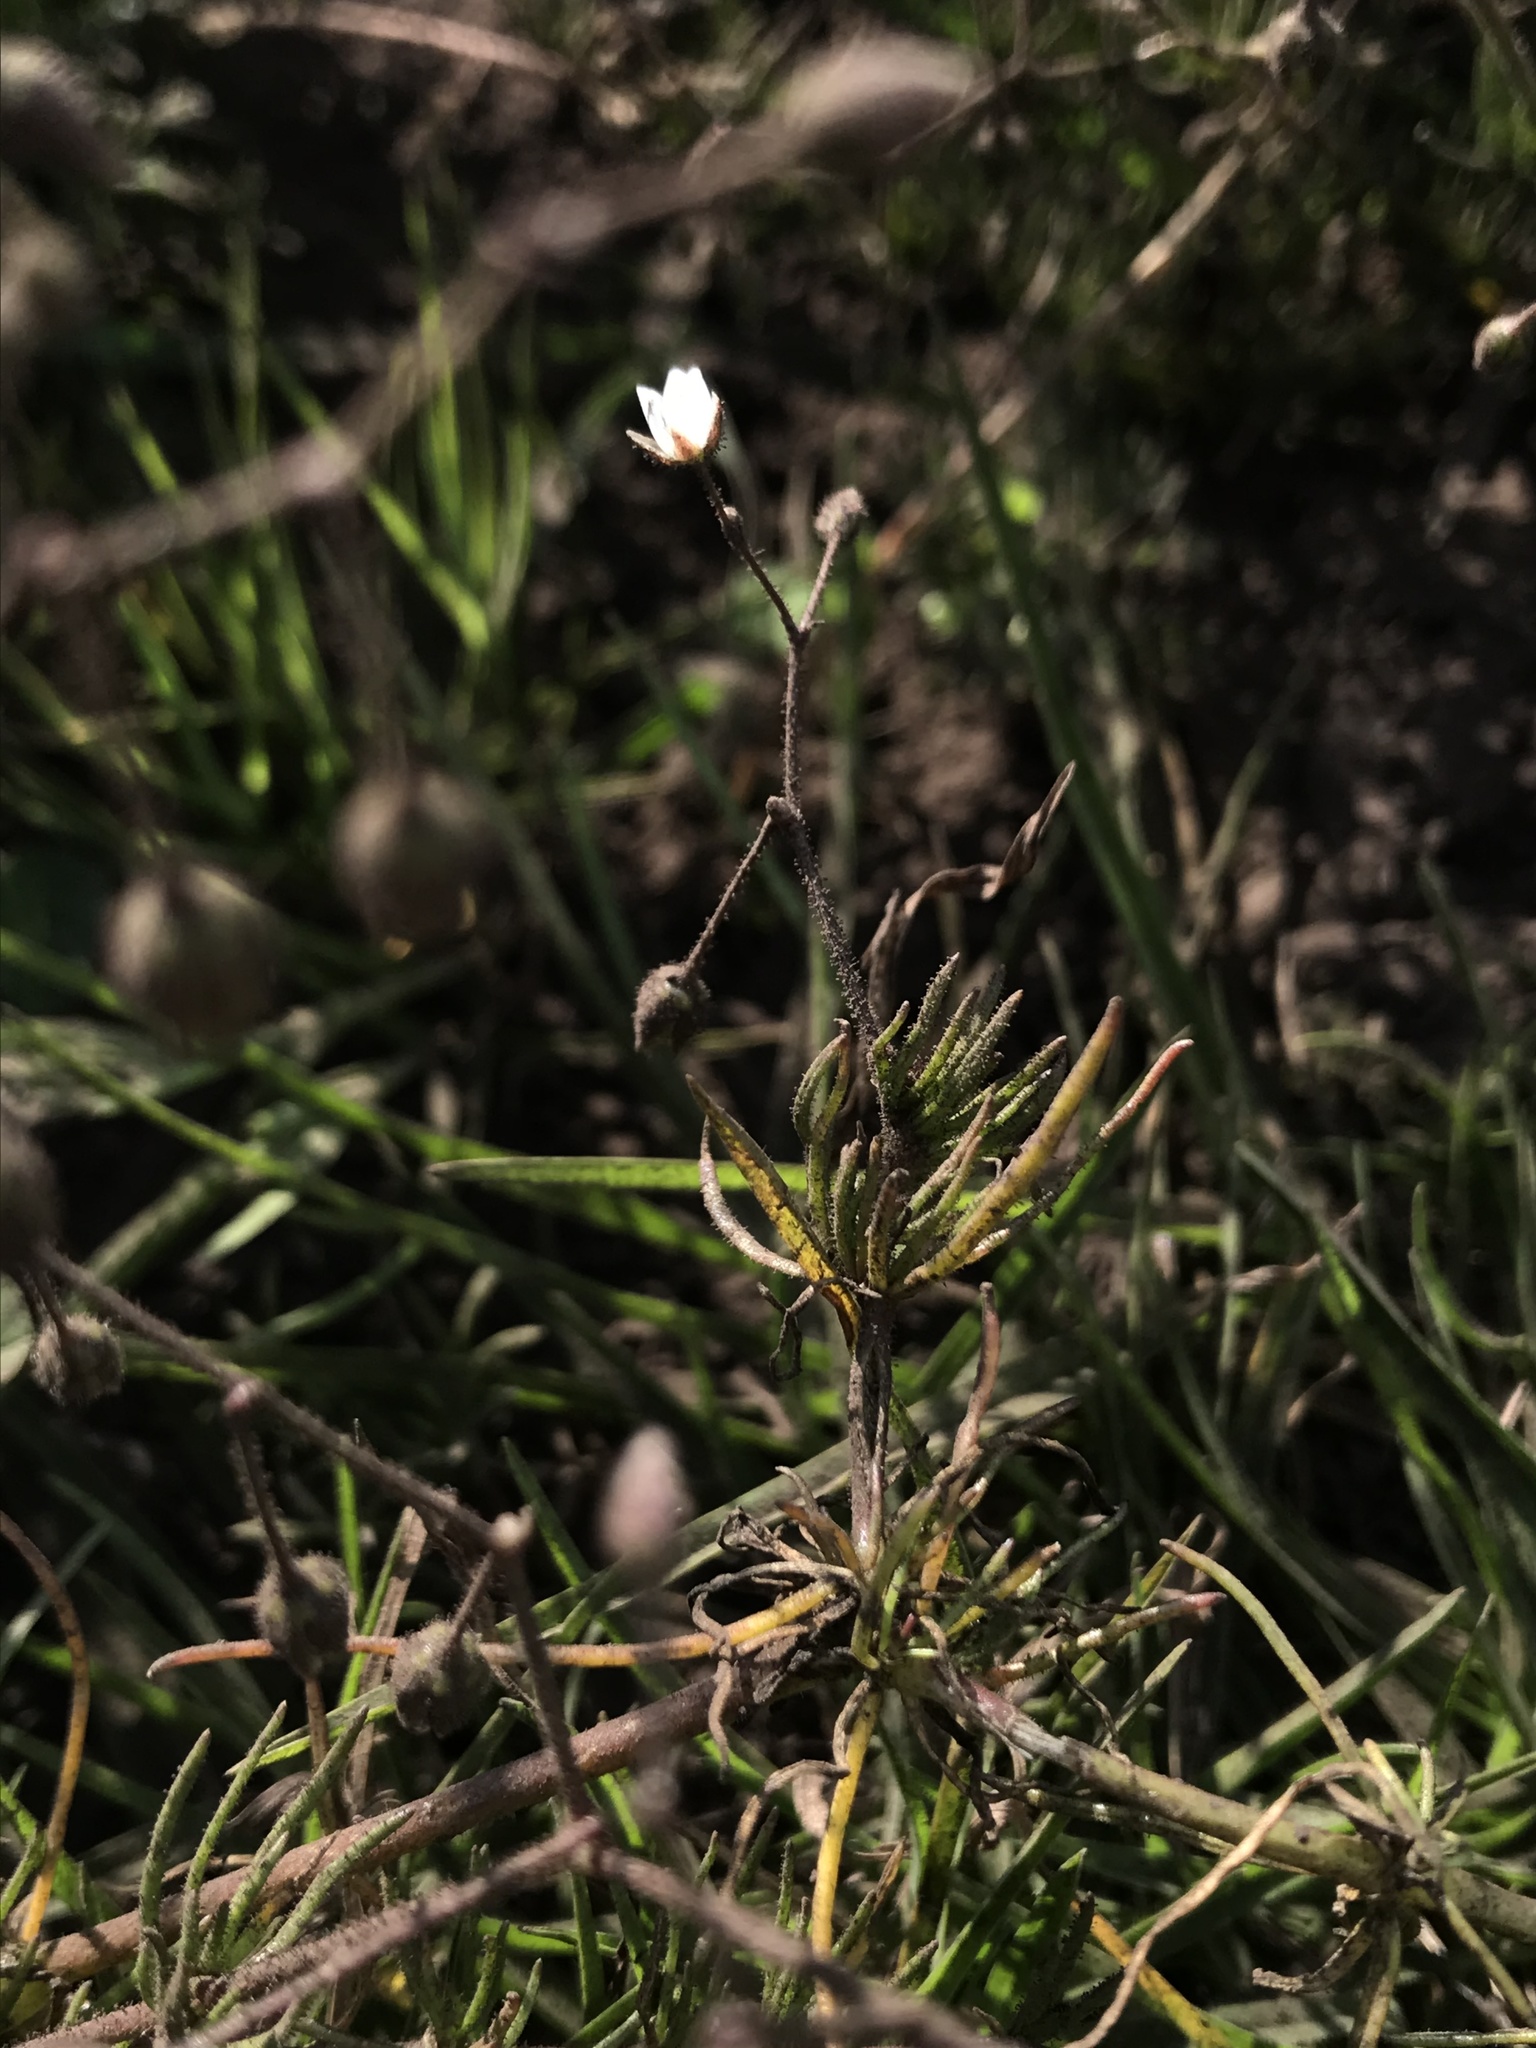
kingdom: Plantae
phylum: Tracheophyta
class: Magnoliopsida
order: Caryophyllales
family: Caryophyllaceae
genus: Spergula
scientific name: Spergula arvensis
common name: Corn spurrey
